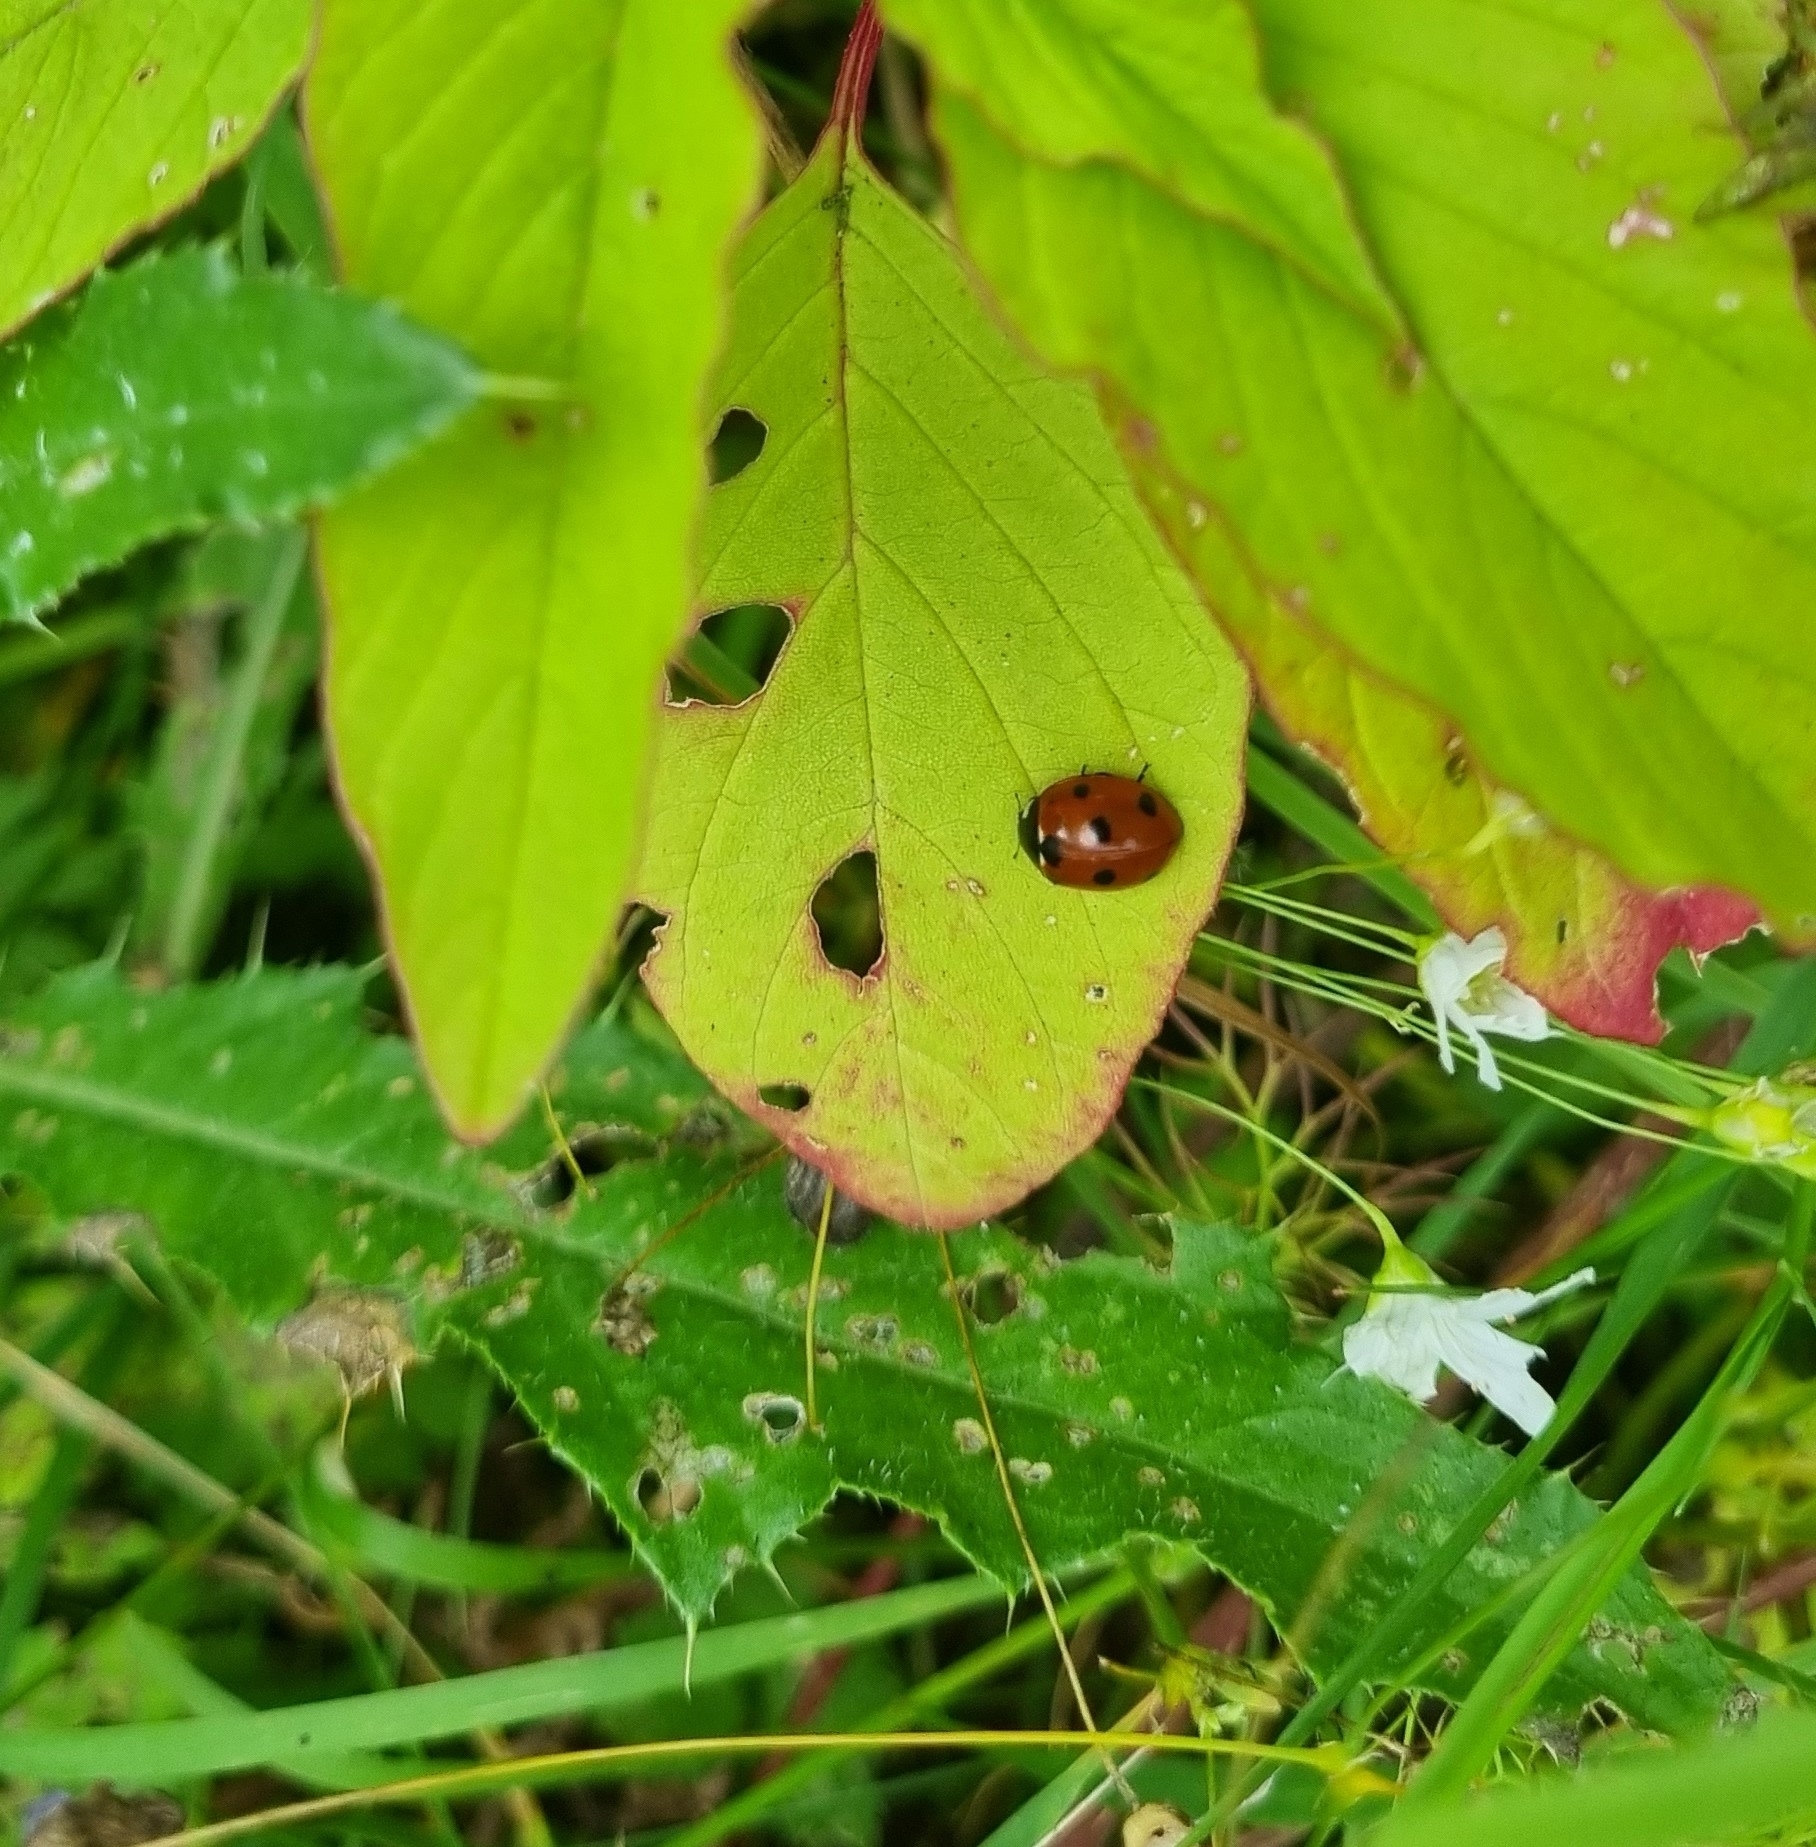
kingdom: Animalia
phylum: Arthropoda
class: Insecta
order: Coleoptera
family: Coccinellidae
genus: Coccinella
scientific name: Coccinella septempunctata
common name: Sevenspotted lady beetle
